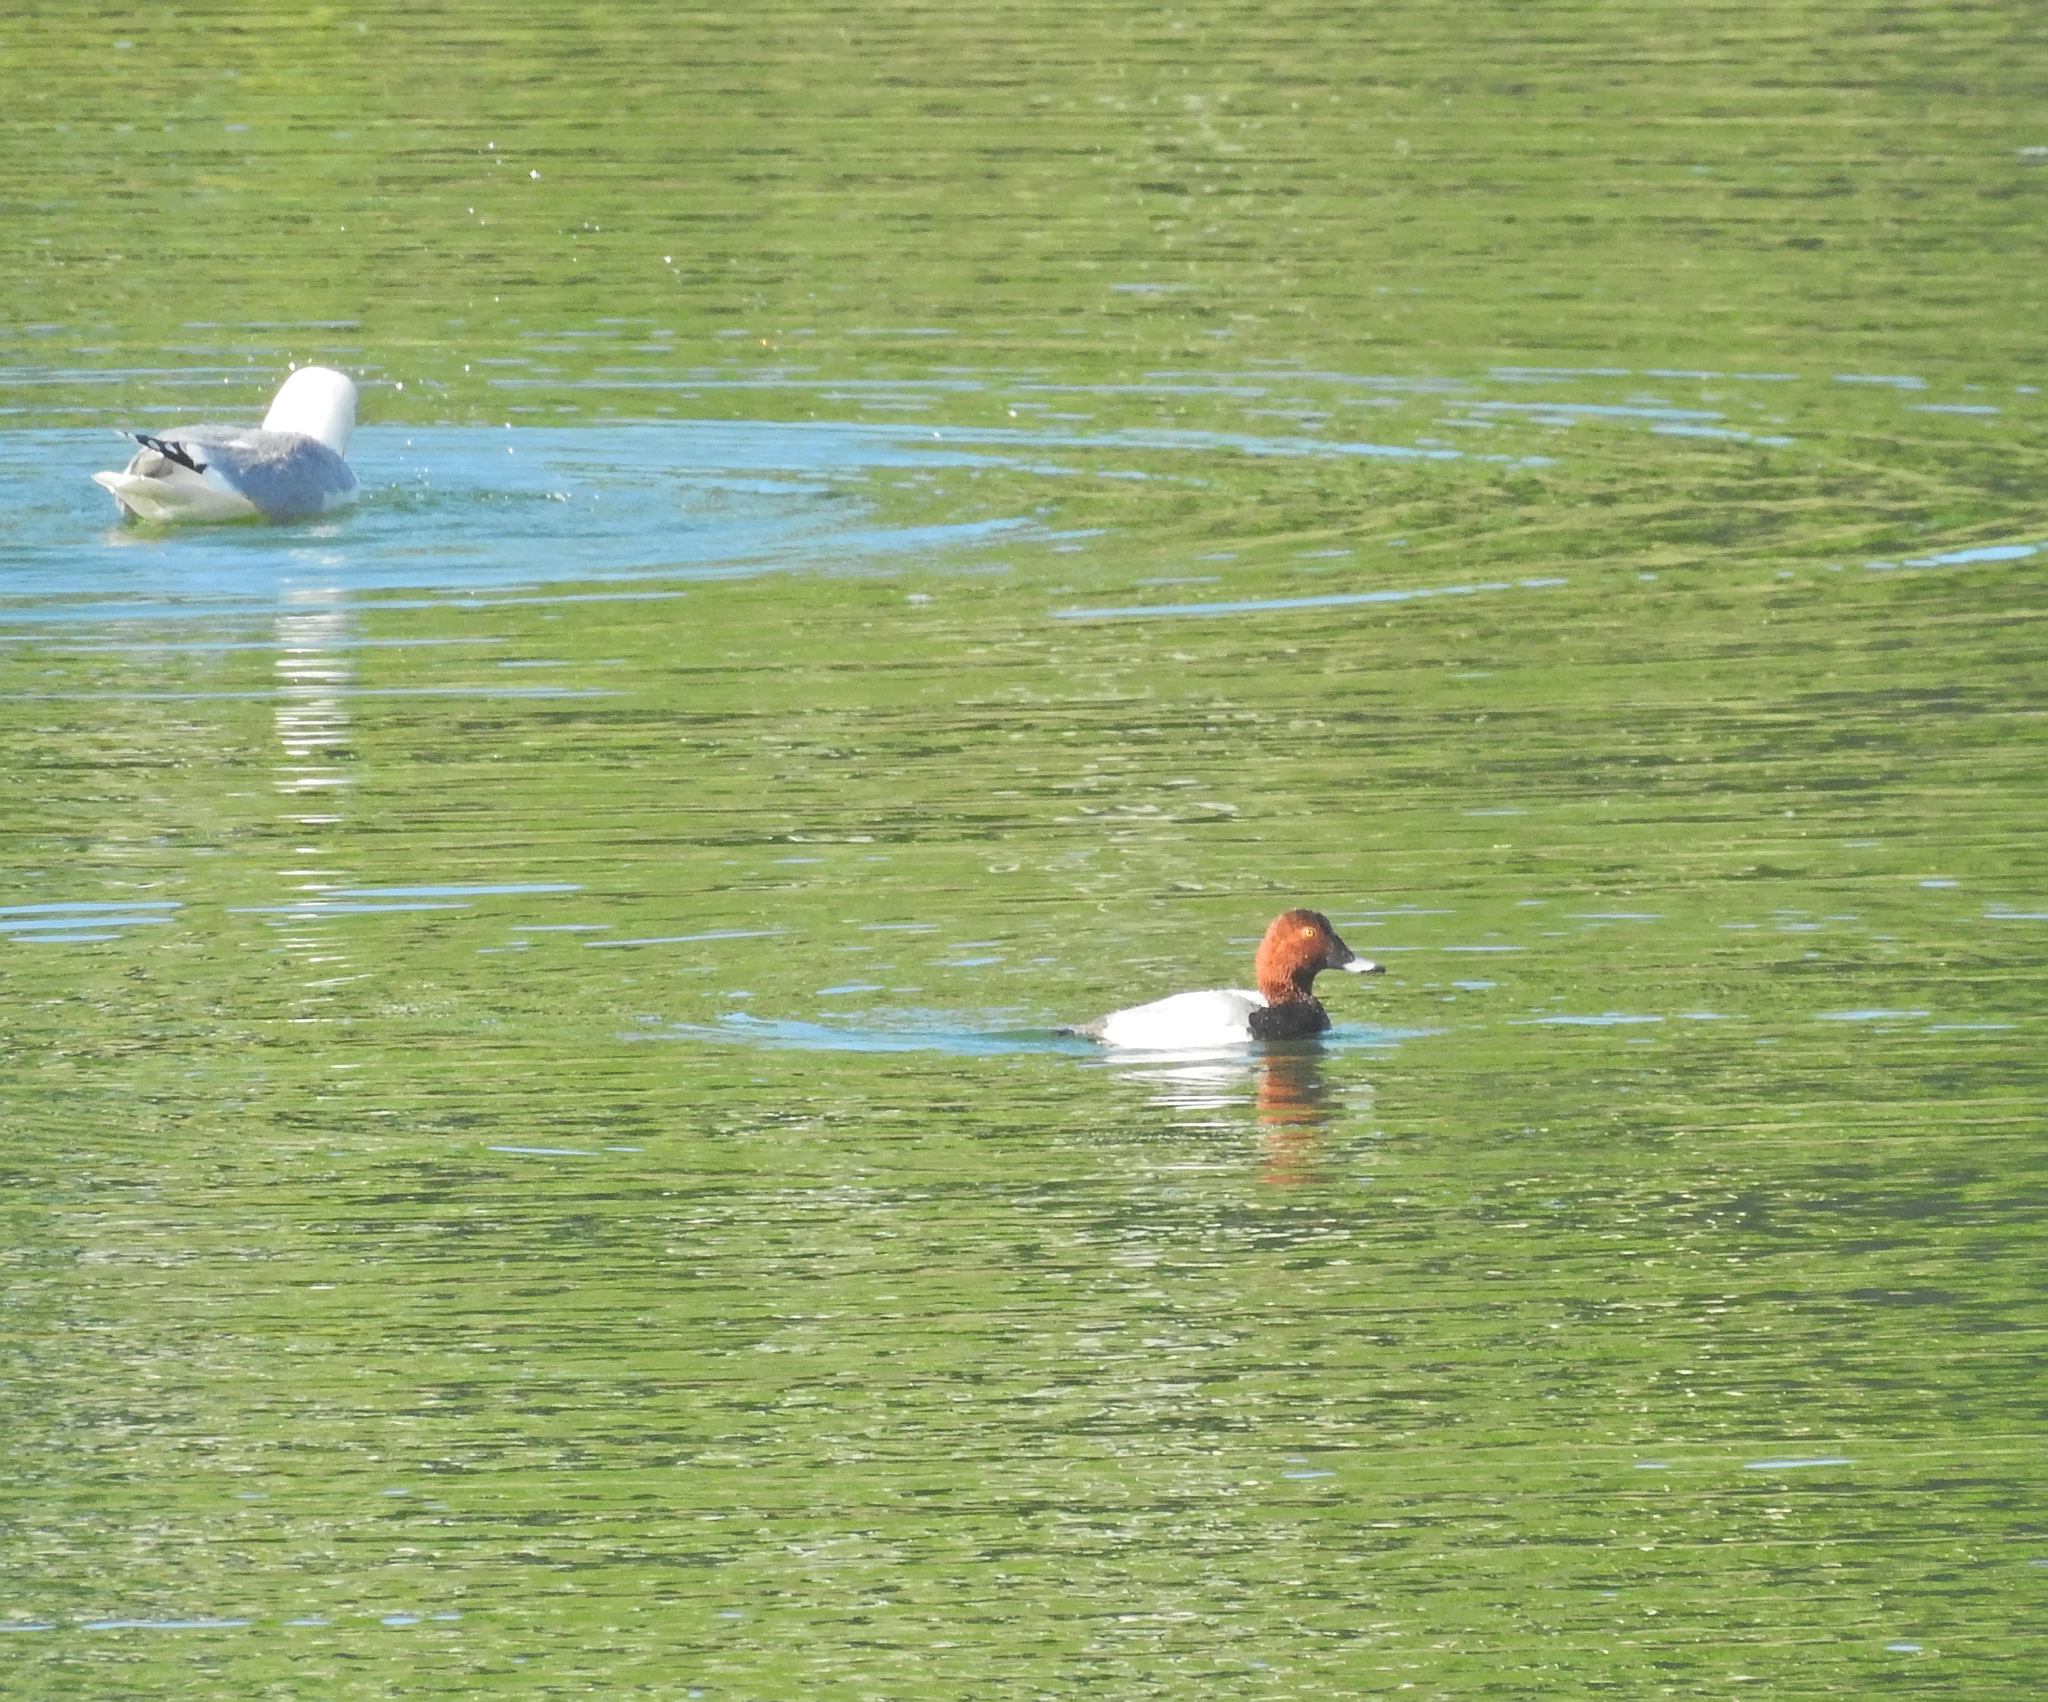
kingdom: Animalia
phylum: Chordata
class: Aves
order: Anseriformes
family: Anatidae
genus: Aythya
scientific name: Aythya ferina
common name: Common pochard
